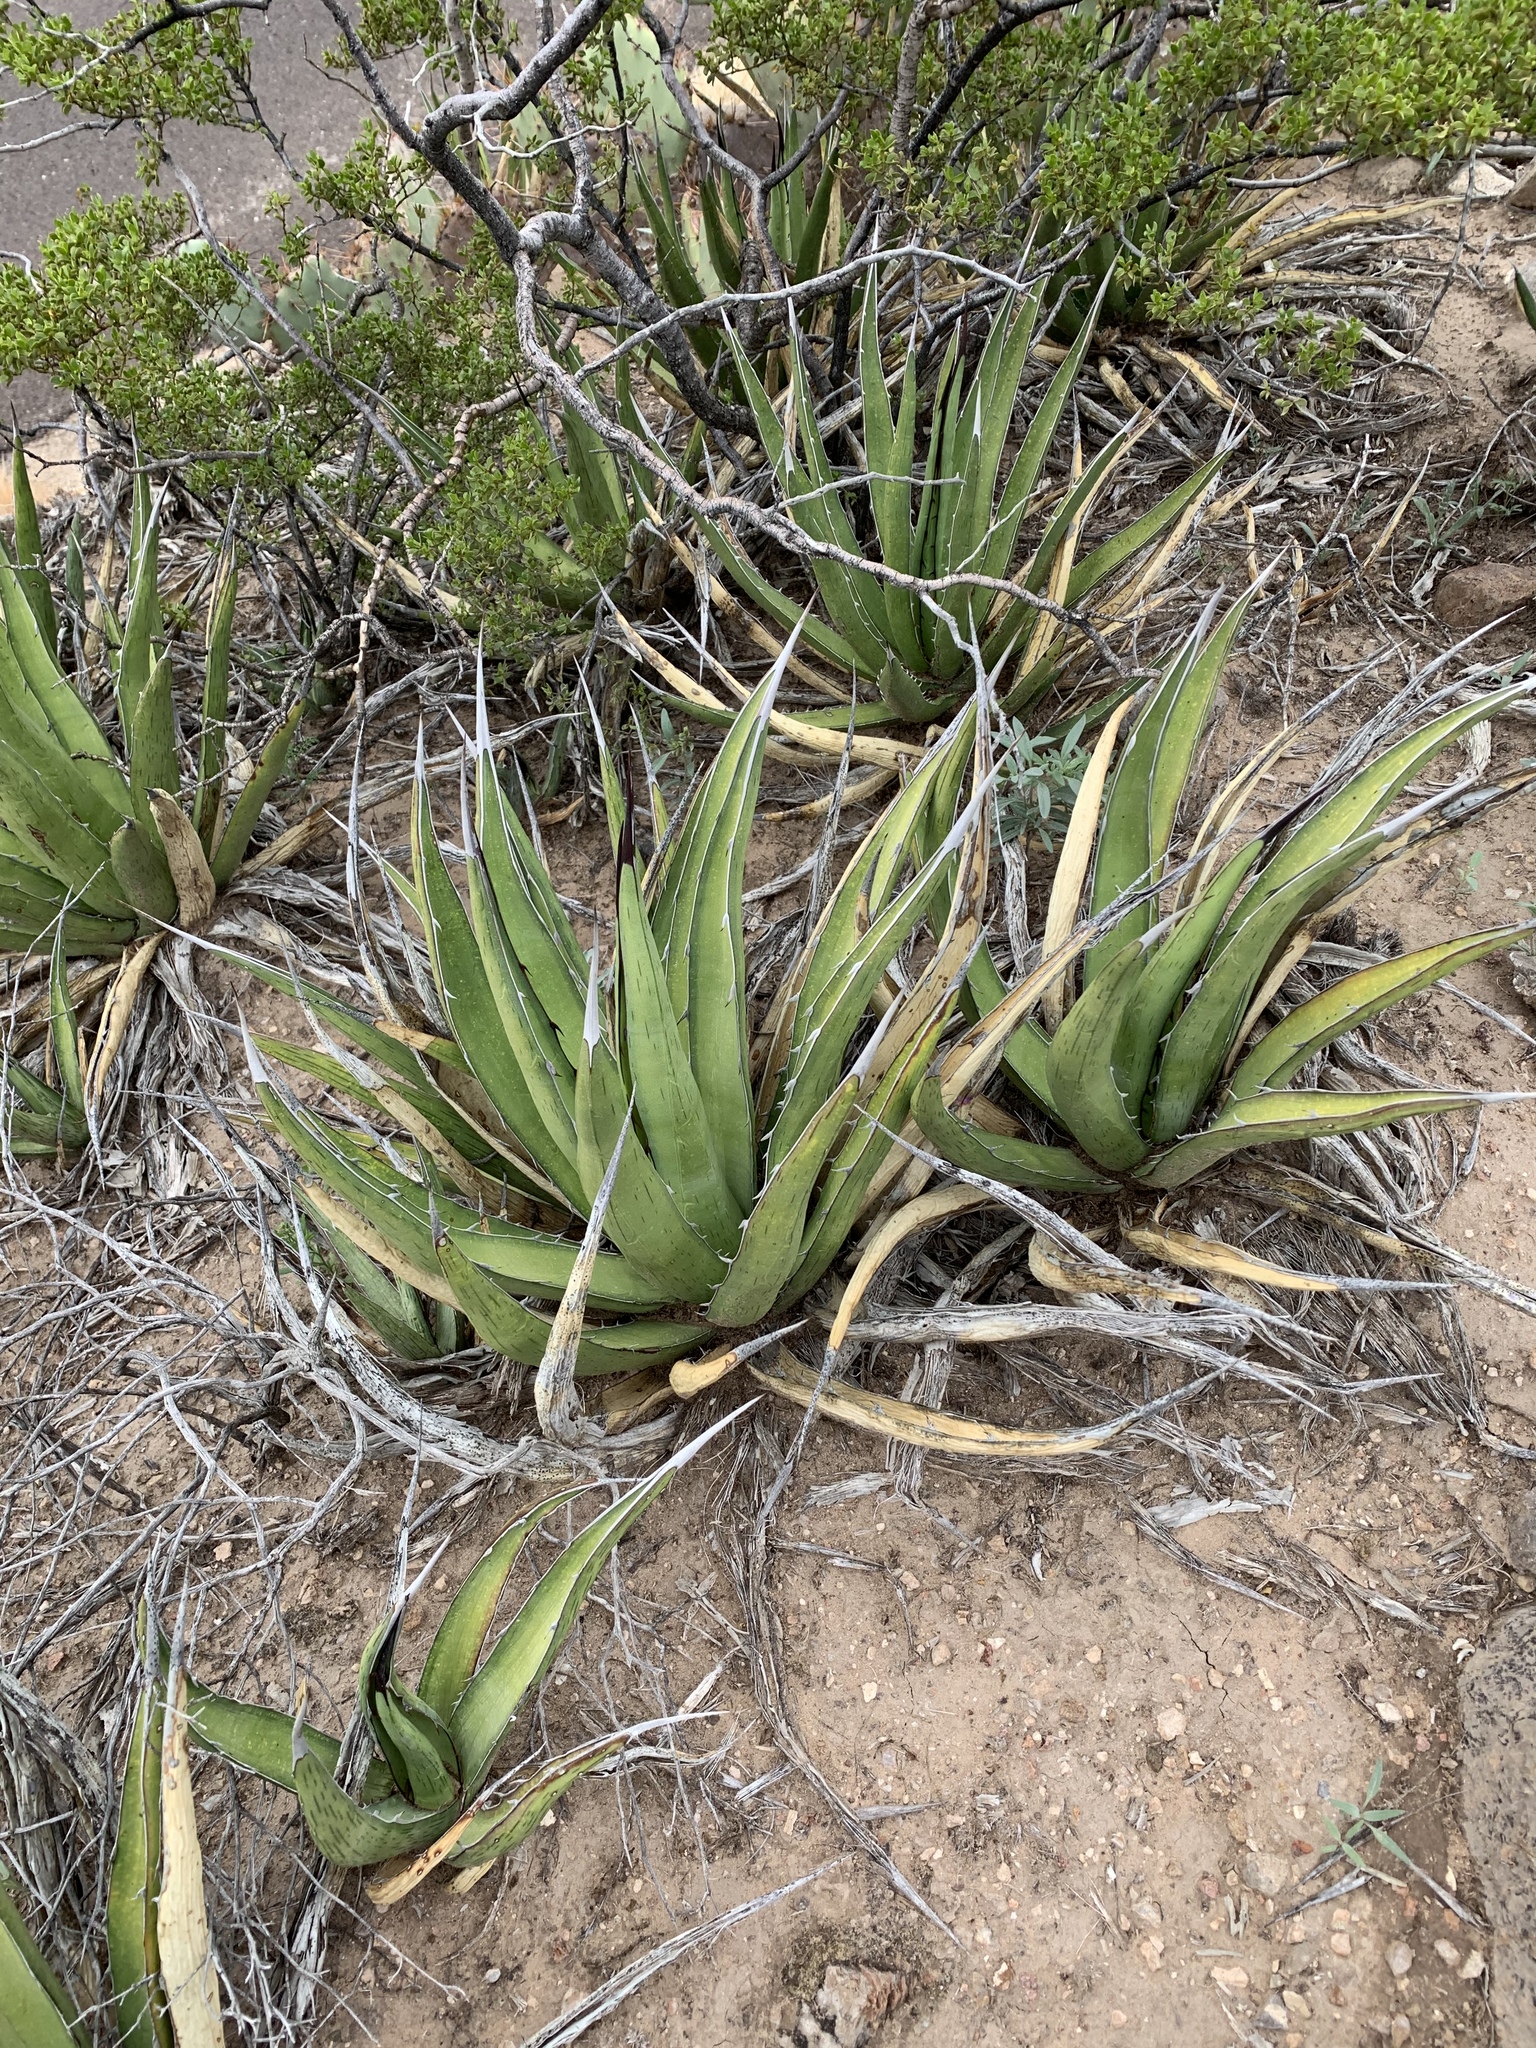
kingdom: Plantae
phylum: Tracheophyta
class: Liliopsida
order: Asparagales
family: Asparagaceae
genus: Agave
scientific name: Agave lechuguilla
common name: Lecheguilla agave
